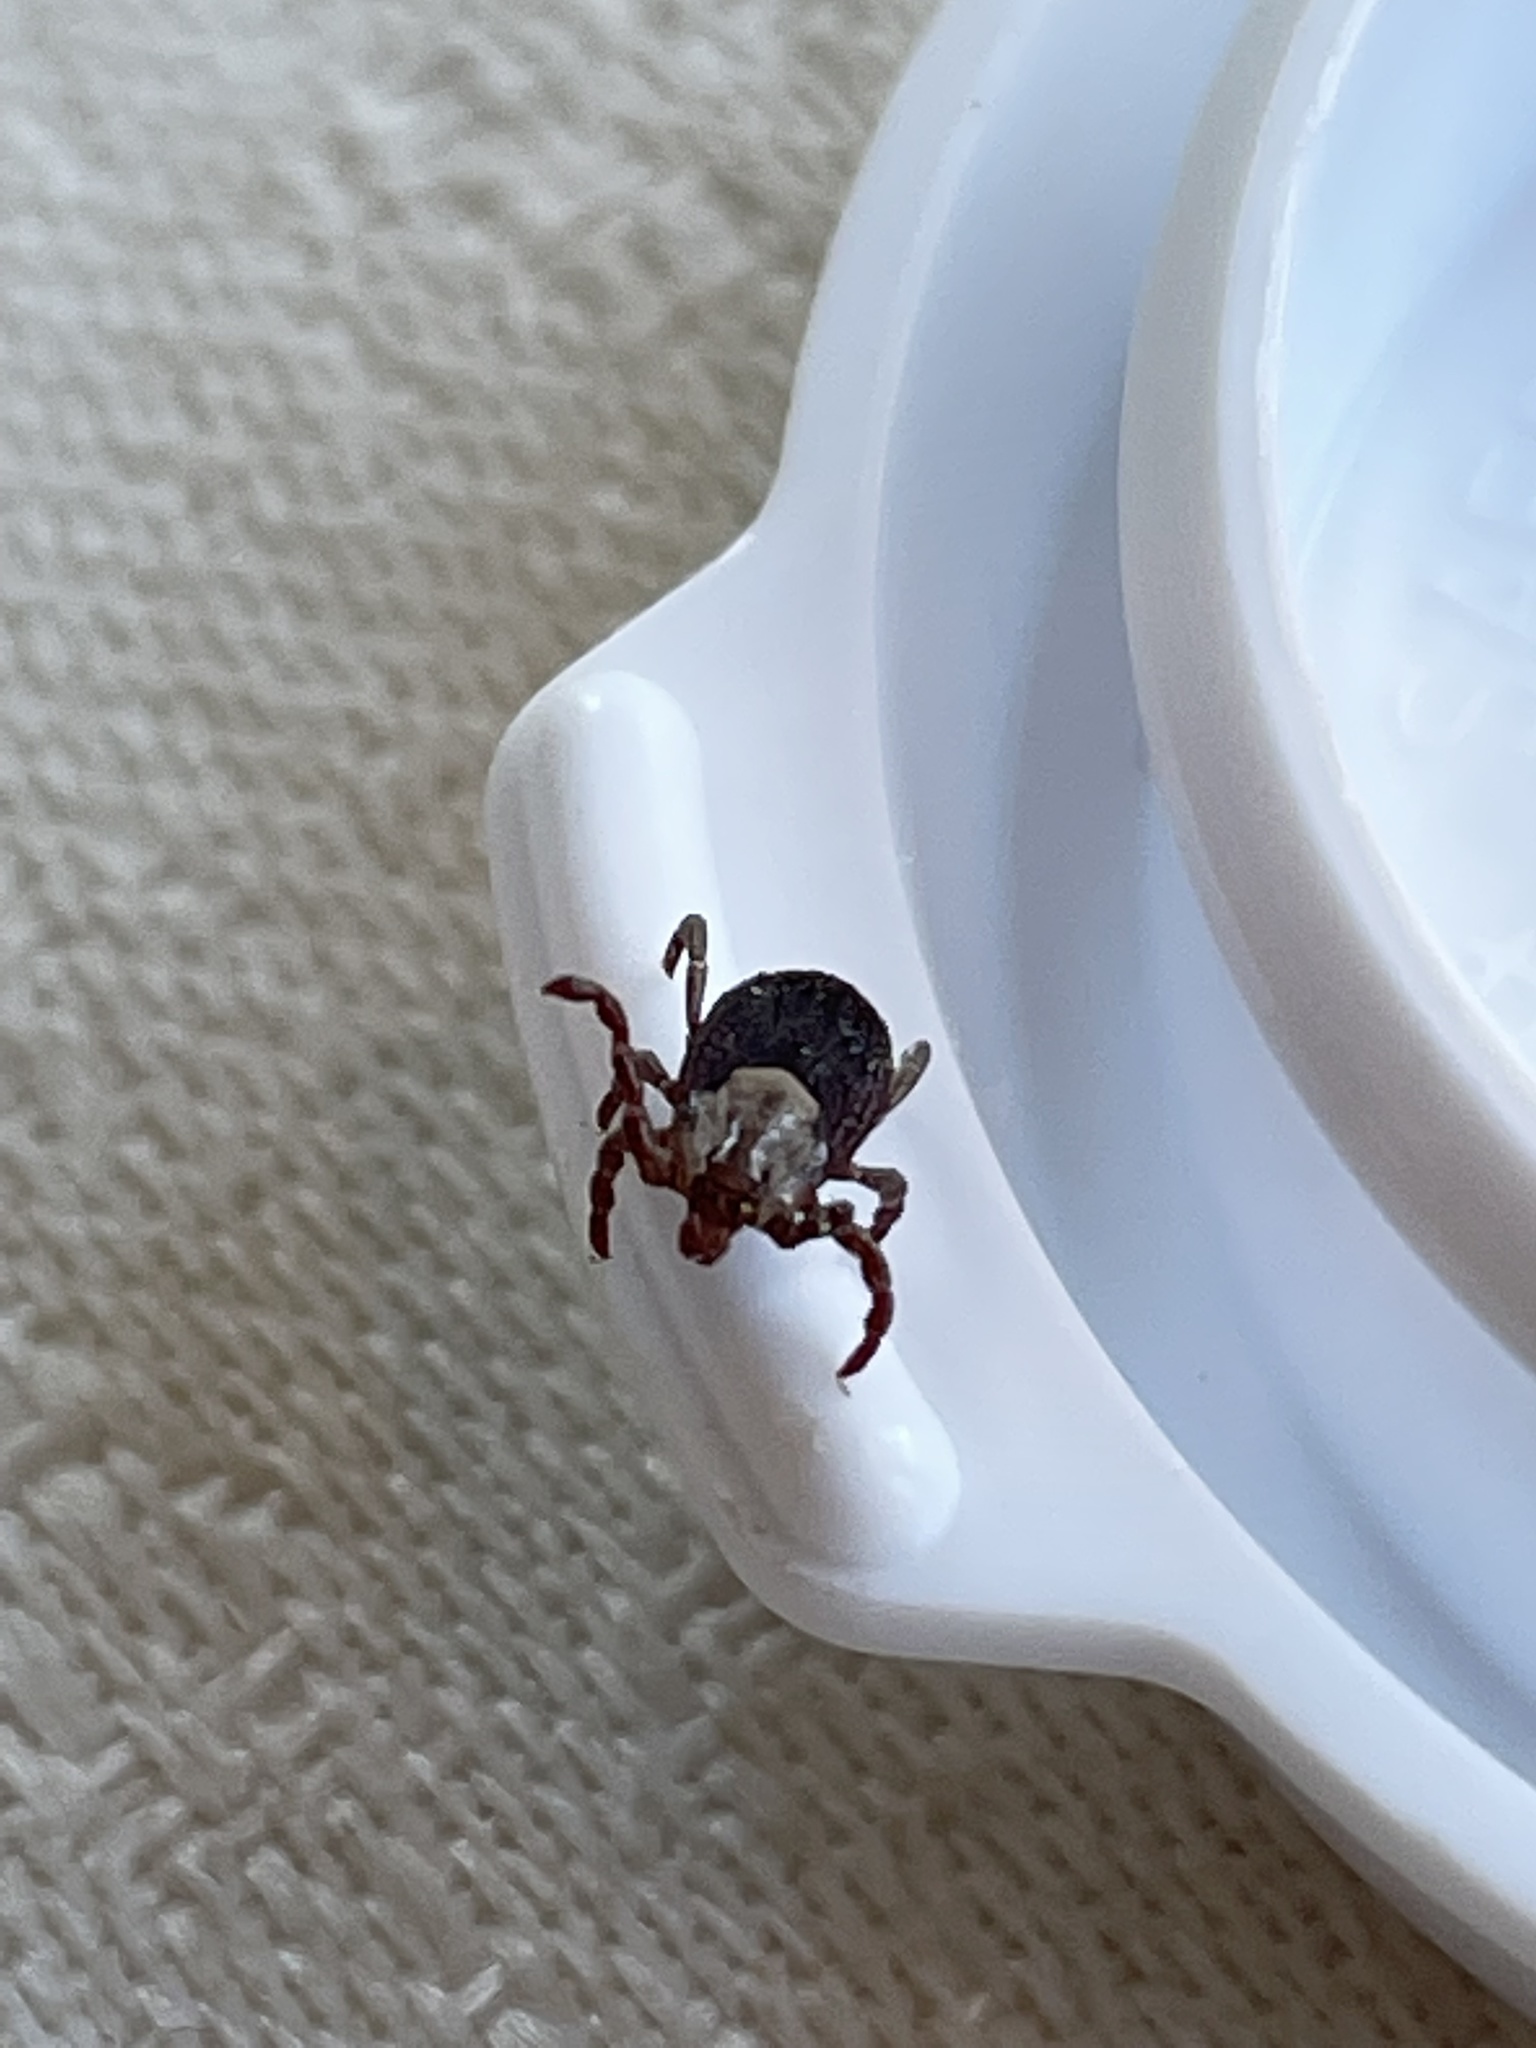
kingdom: Animalia
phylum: Arthropoda
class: Arachnida
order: Ixodida
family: Ixodidae
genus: Dermacentor
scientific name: Dermacentor occidentalis
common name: Net tick
